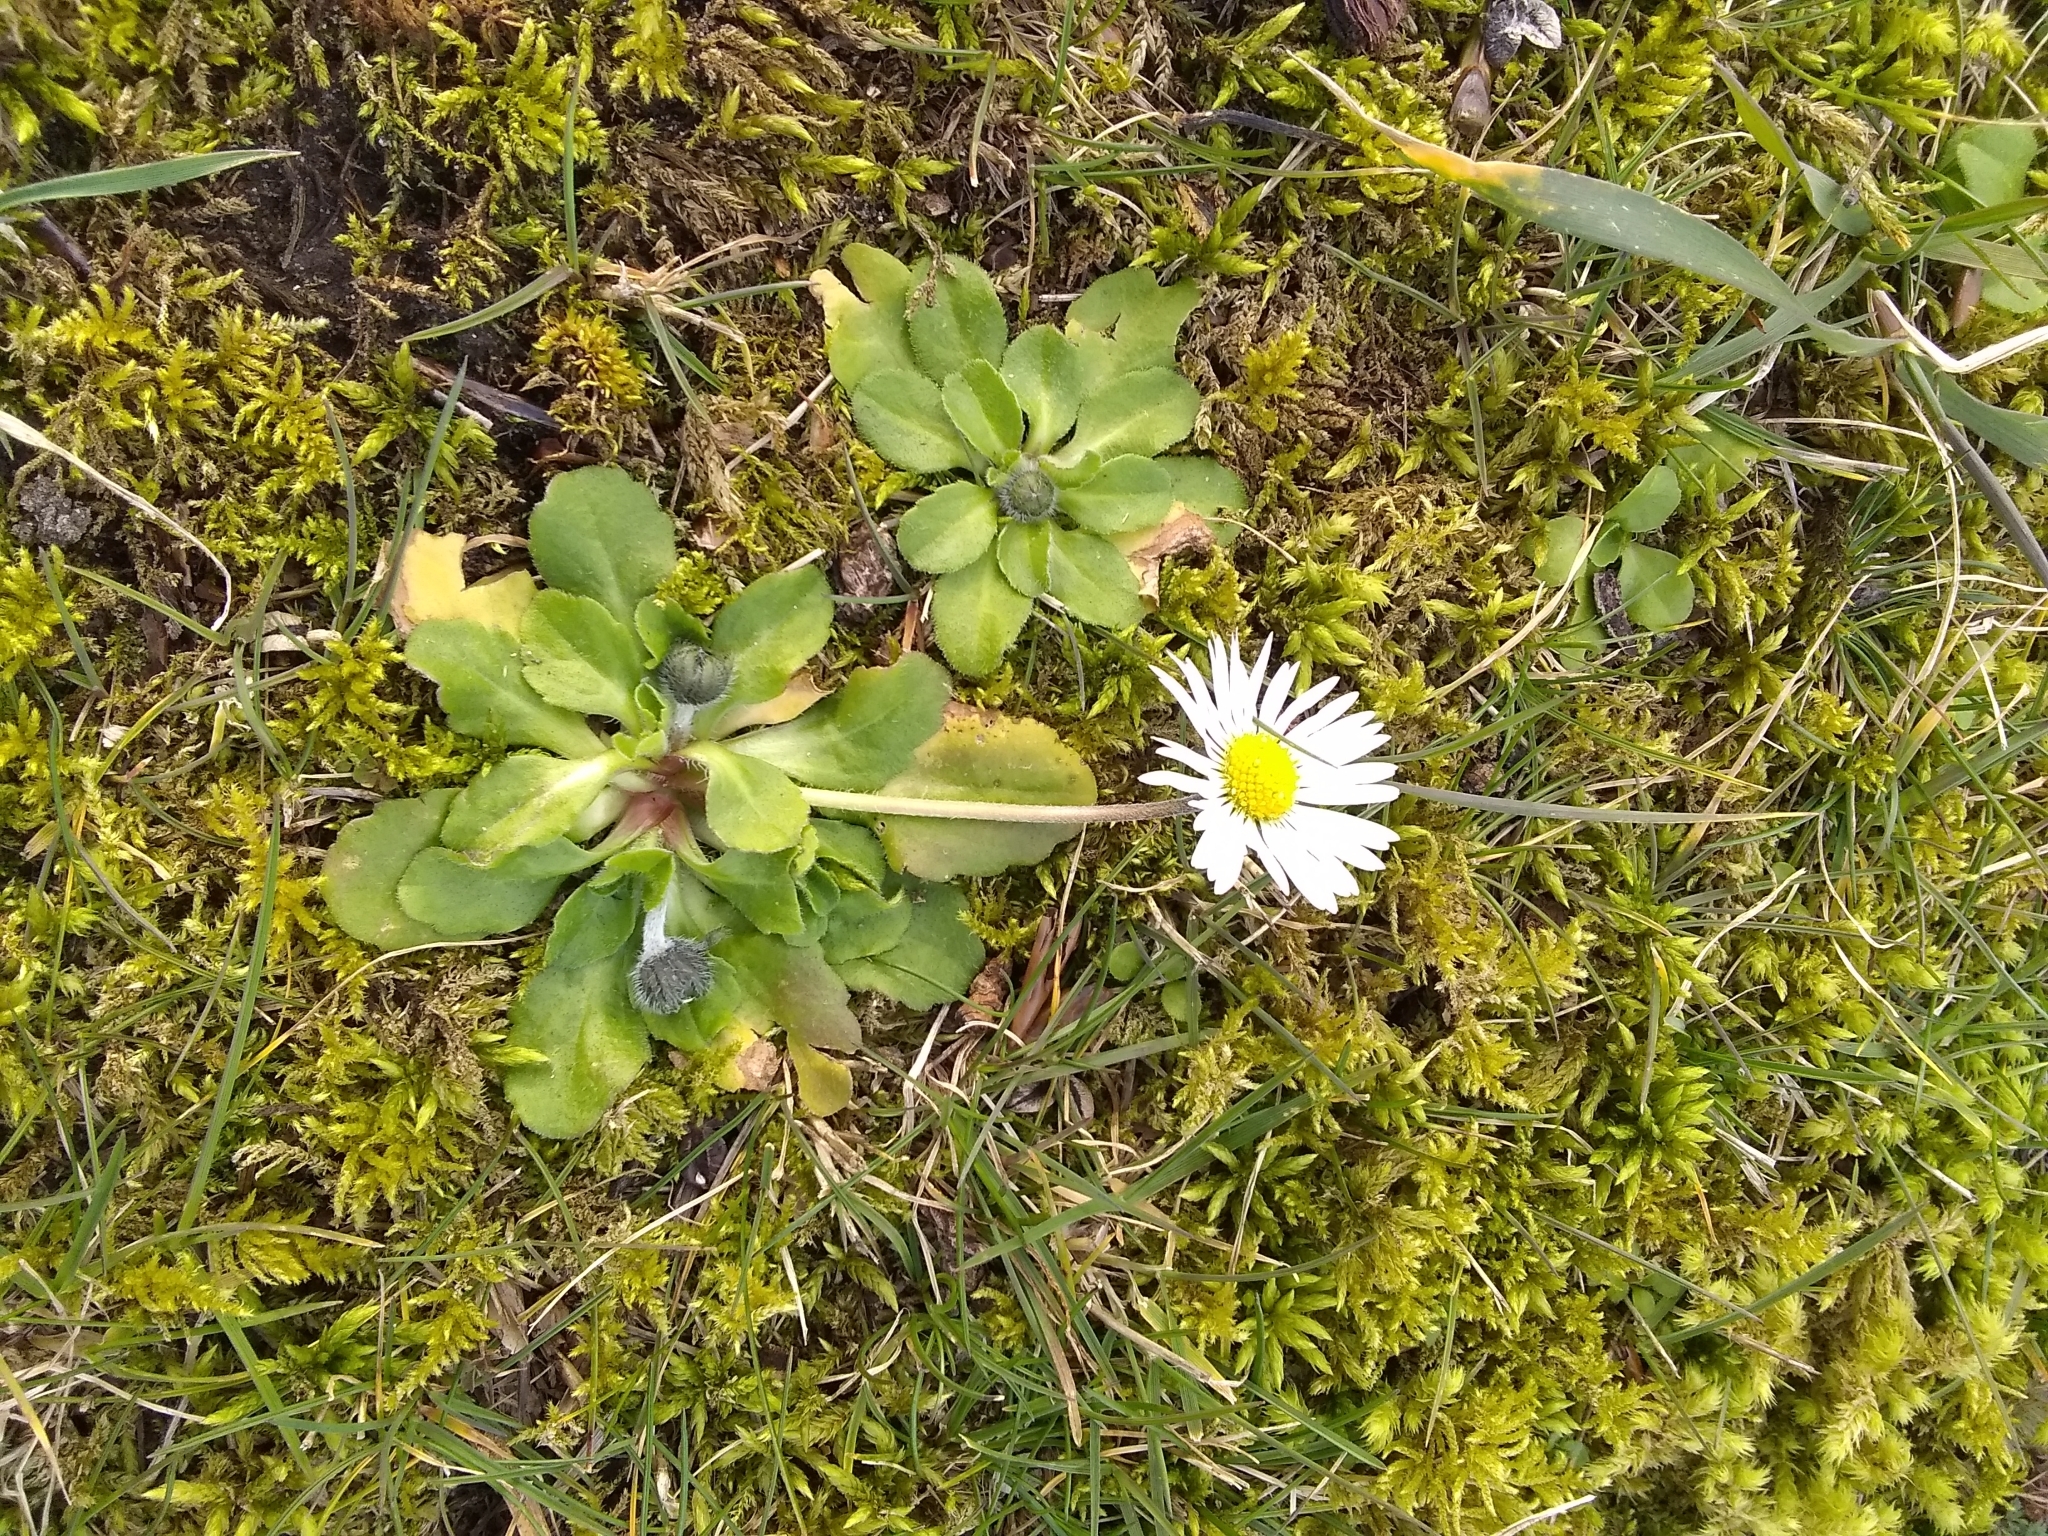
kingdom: Plantae
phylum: Tracheophyta
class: Magnoliopsida
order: Asterales
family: Asteraceae
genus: Bellis
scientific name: Bellis perennis
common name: Lawndaisy
